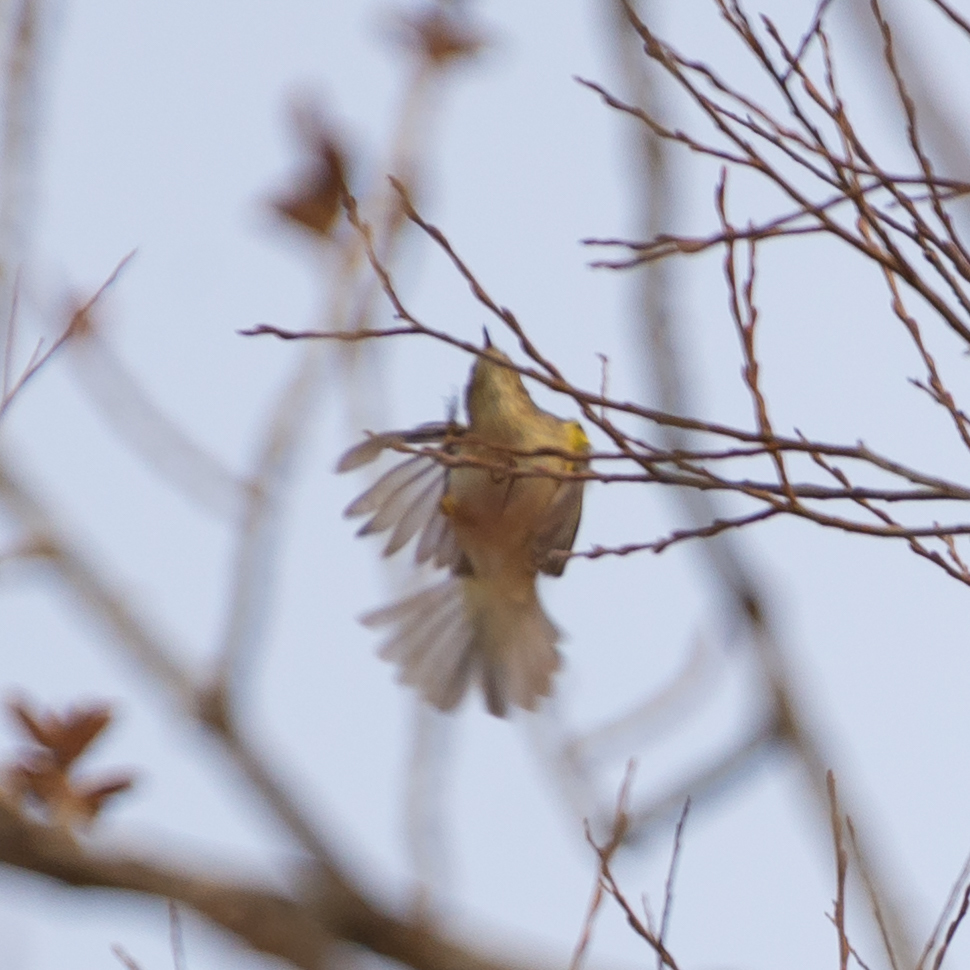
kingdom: Animalia
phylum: Chordata
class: Aves
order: Passeriformes
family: Phylloscopidae
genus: Phylloscopus
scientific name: Phylloscopus collybita
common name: Common chiffchaff
